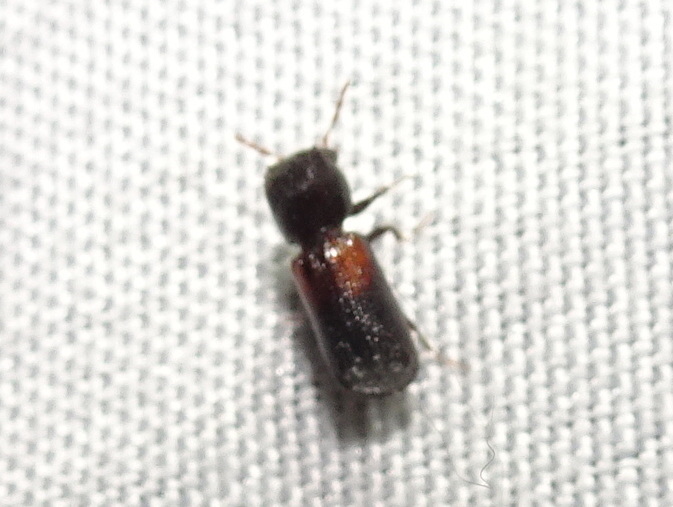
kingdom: Animalia
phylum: Arthropoda
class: Insecta
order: Coleoptera
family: Bostrichidae
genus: Xylobiops
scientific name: Xylobiops basilaris
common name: Red-shouldered bostrichid
